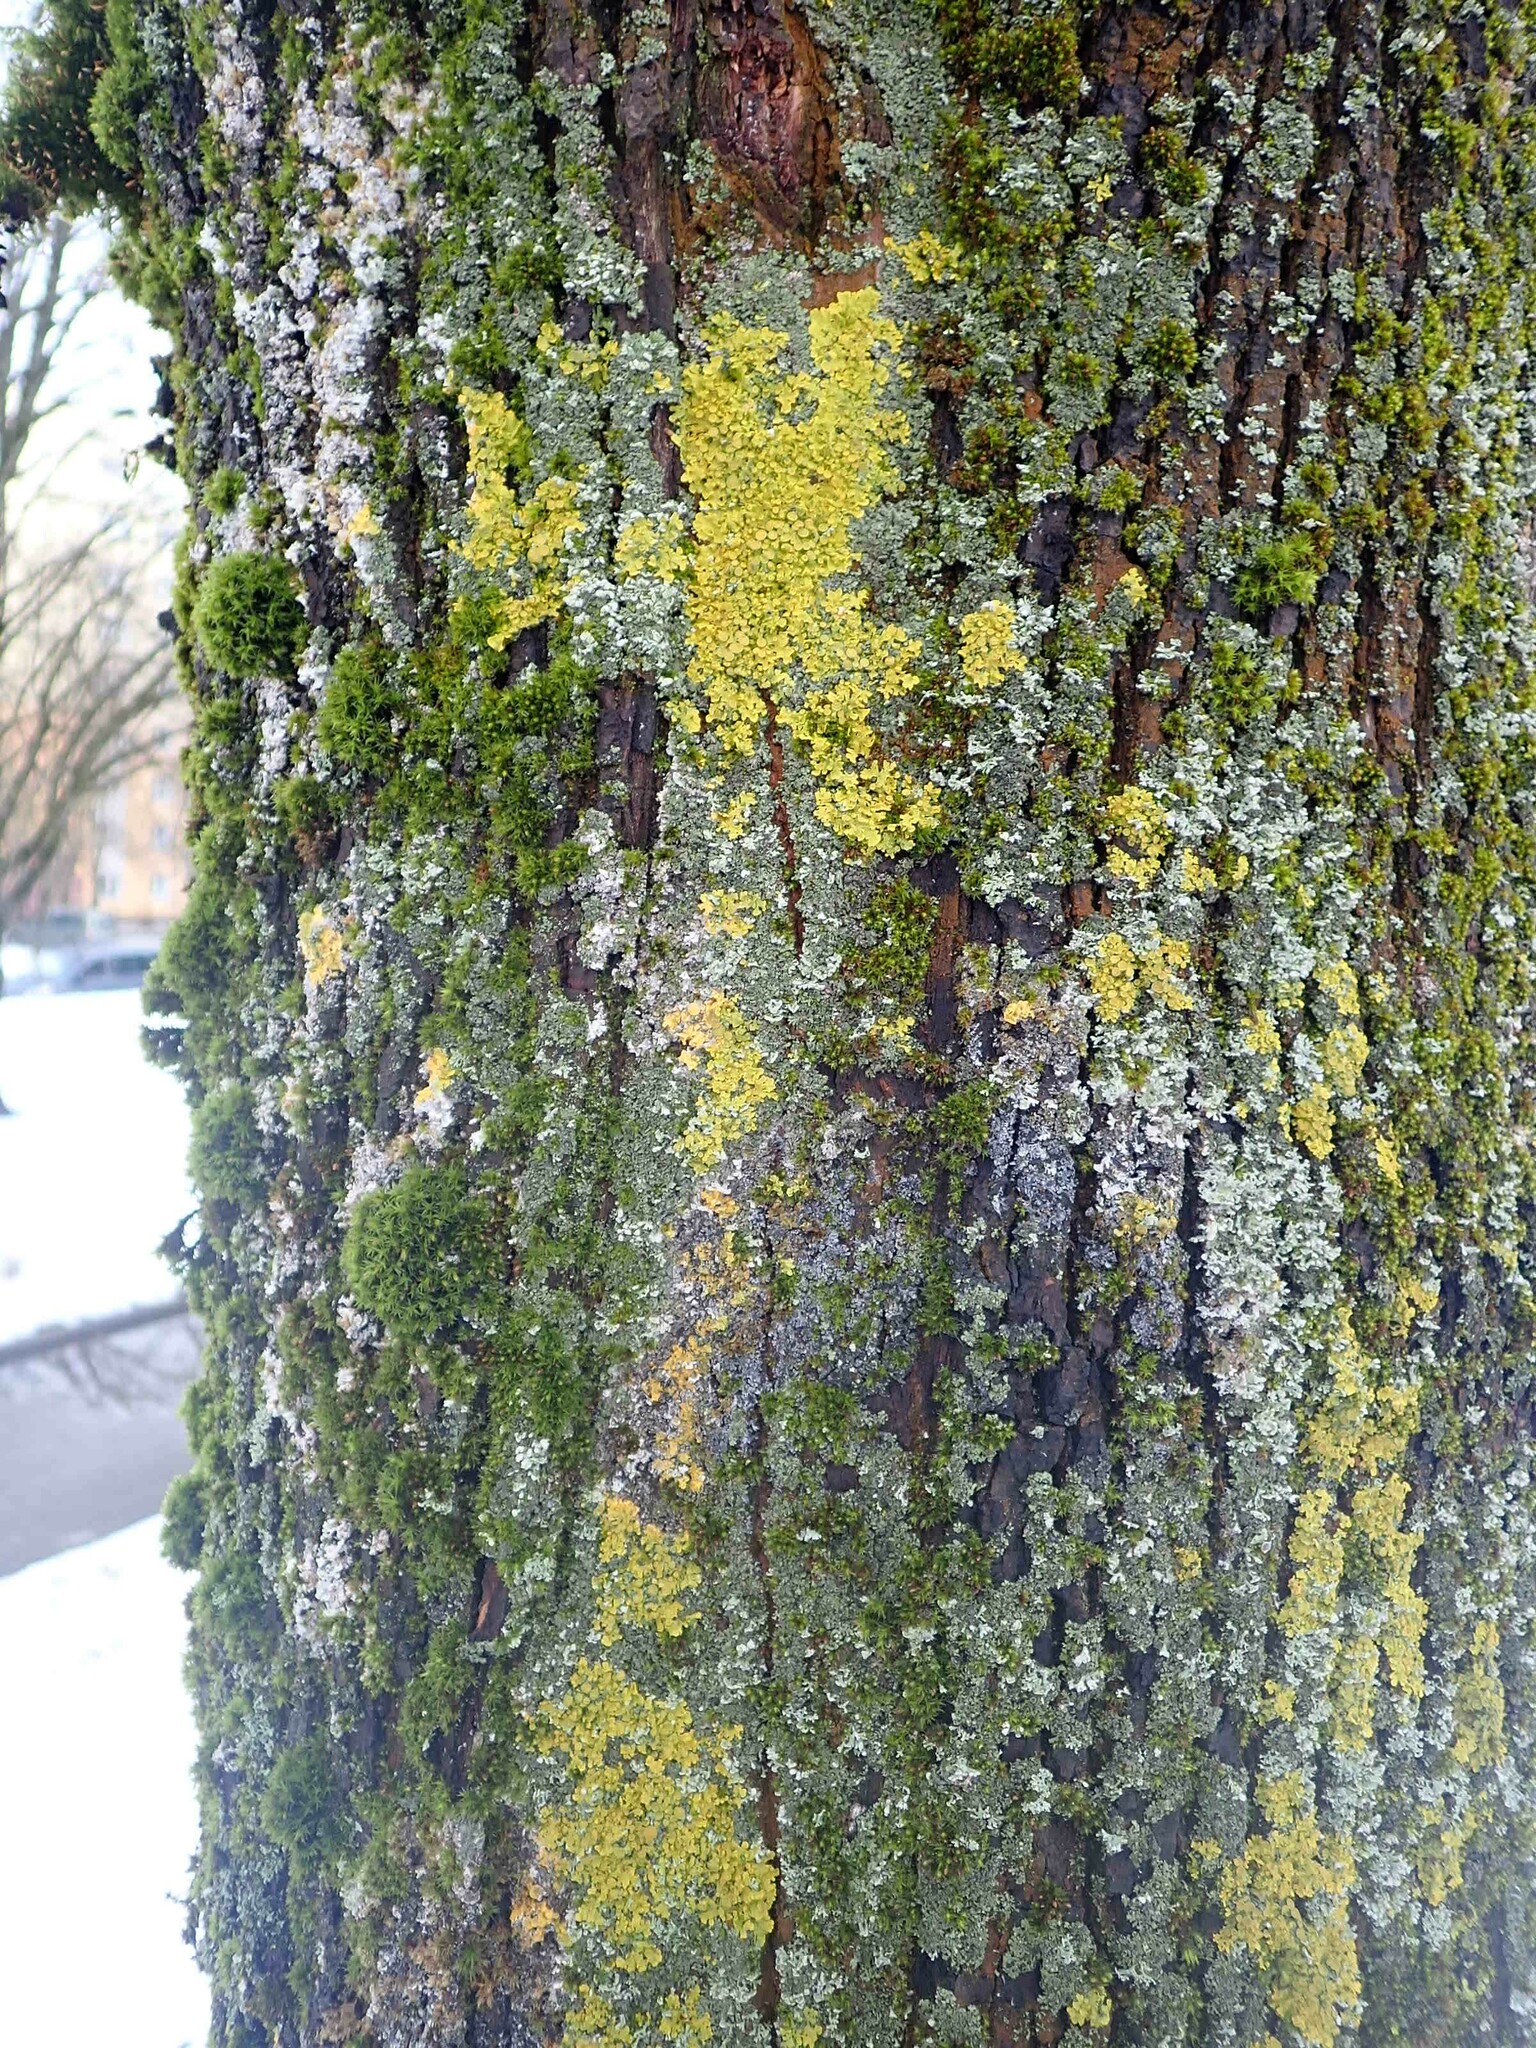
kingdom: Fungi
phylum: Ascomycota
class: Lecanoromycetes
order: Teloschistales
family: Teloschistaceae
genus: Xanthoria
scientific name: Xanthoria parietina
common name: Common orange lichen
